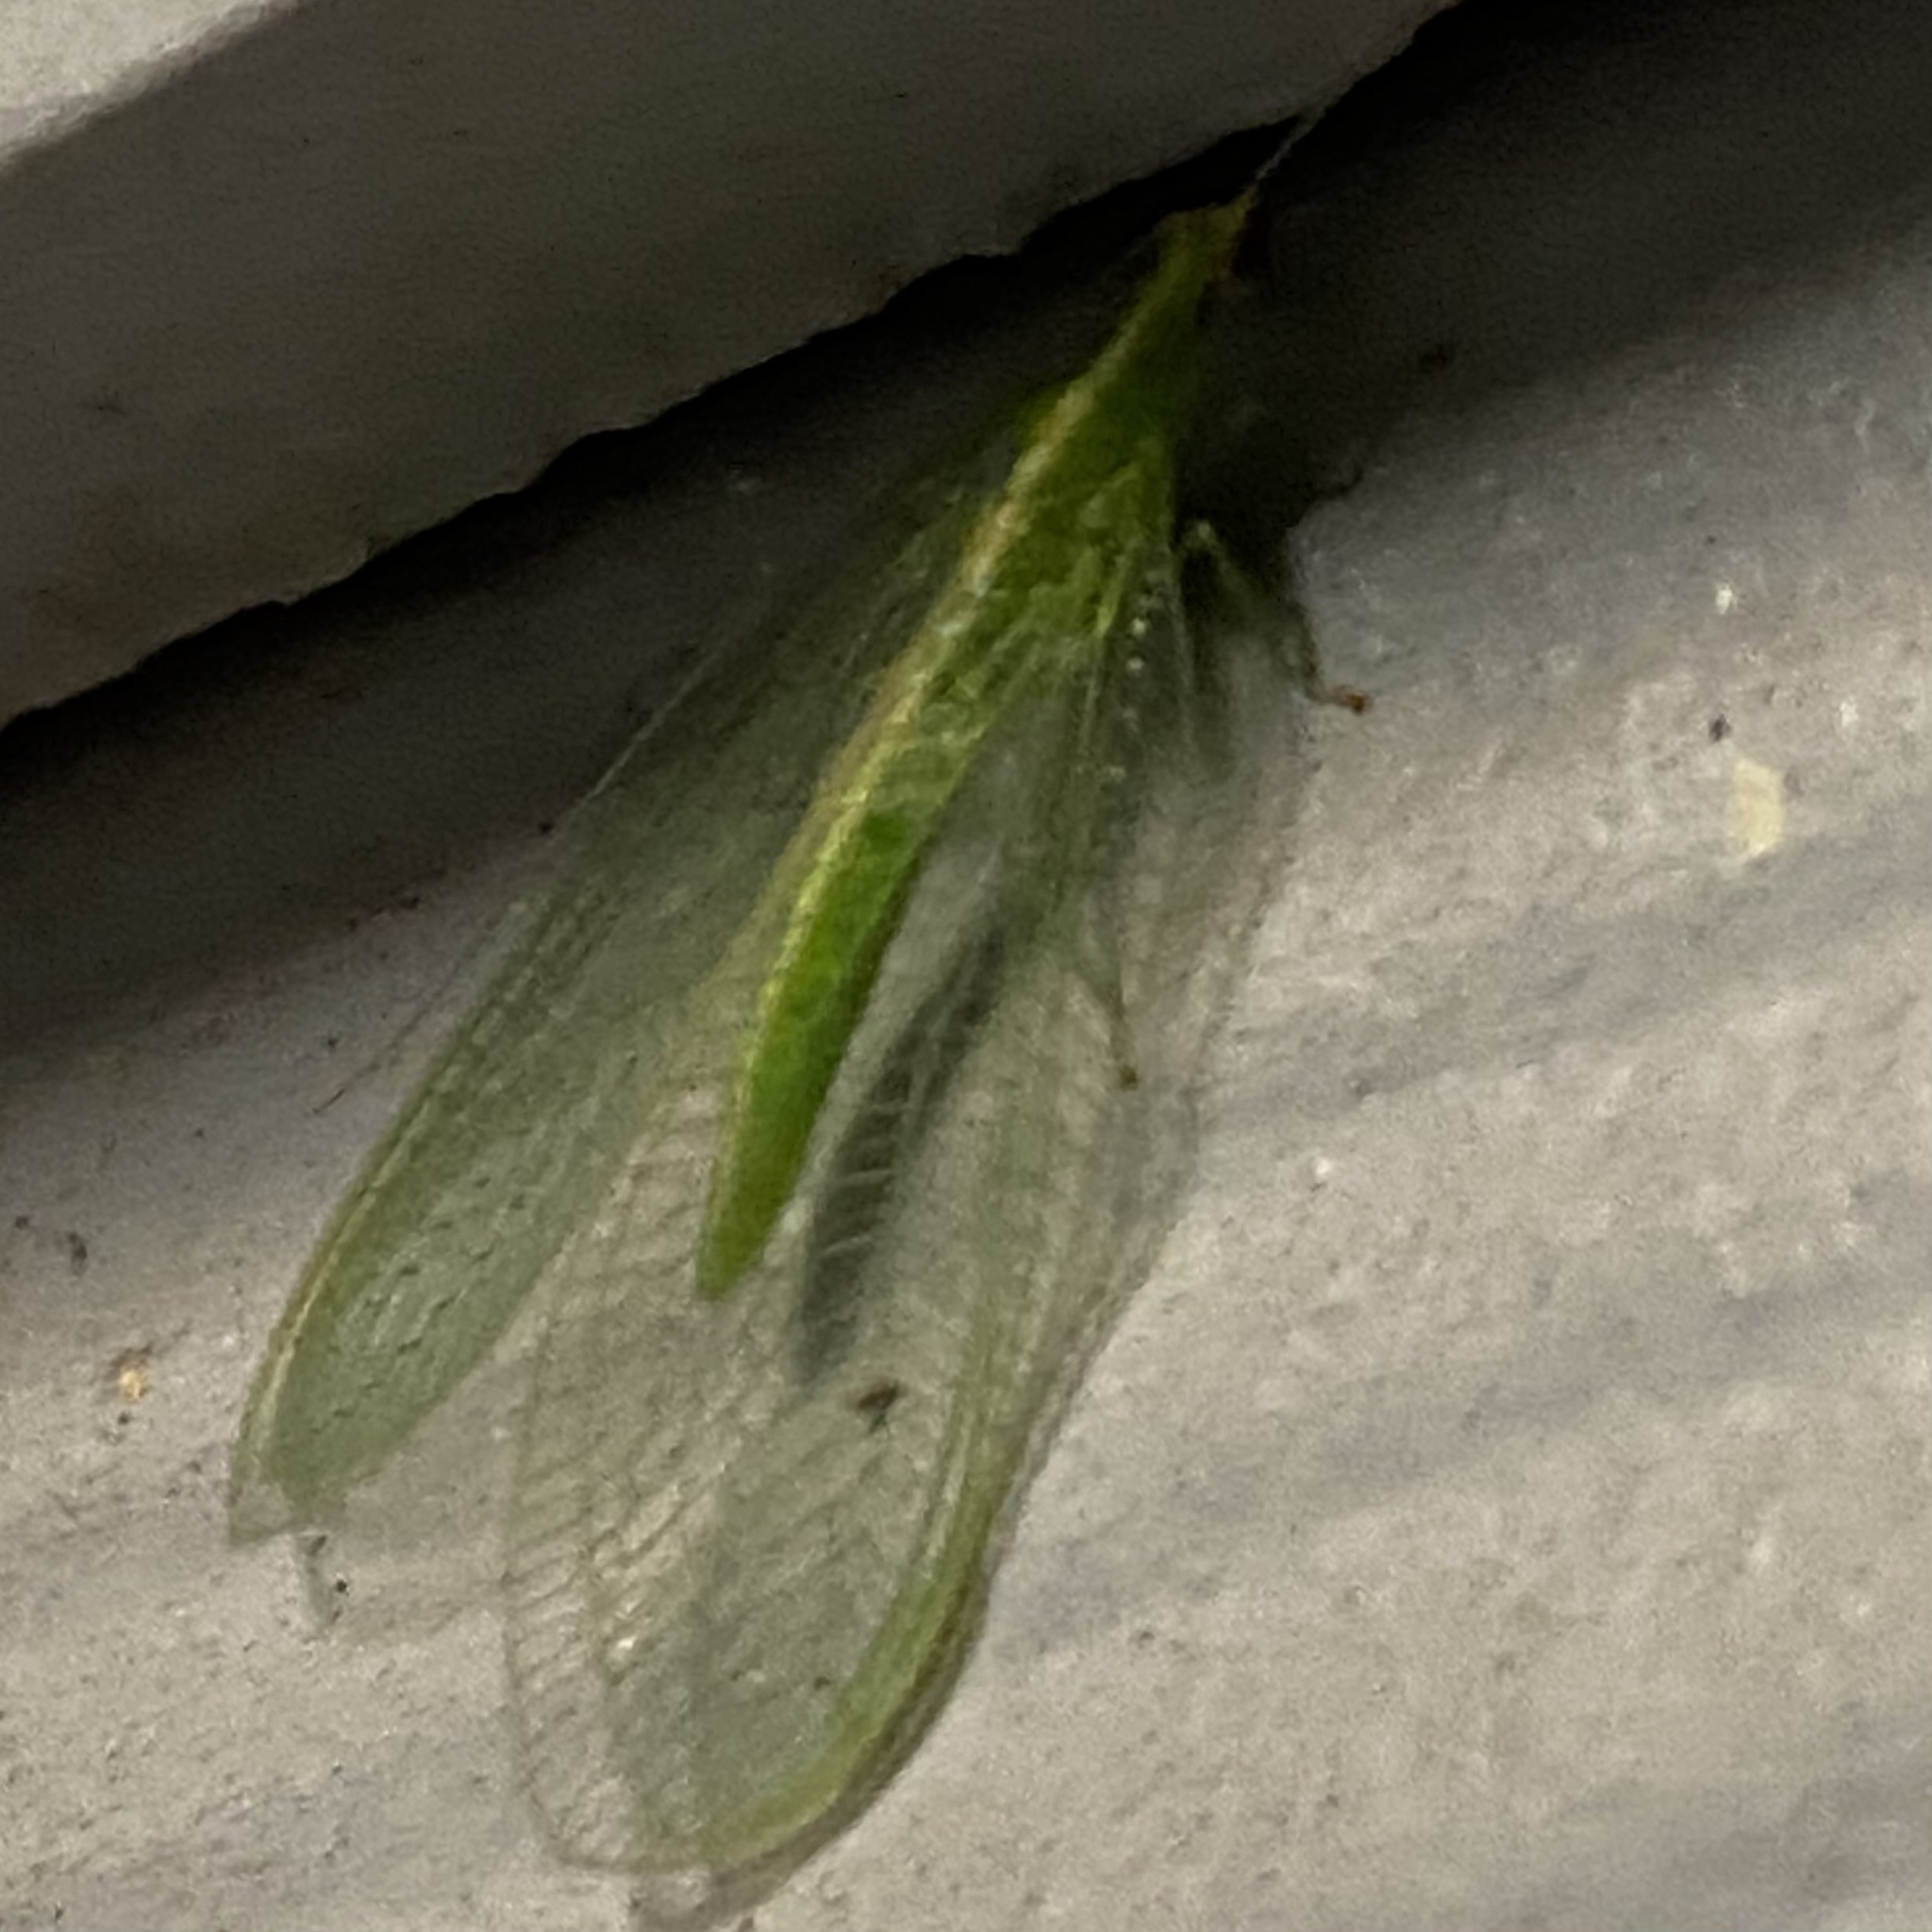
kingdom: Animalia
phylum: Arthropoda
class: Insecta
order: Neuroptera
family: Chrysopidae
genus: Chrysoperla
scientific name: Chrysoperla rufilabris
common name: Red-lipped green lacewing
